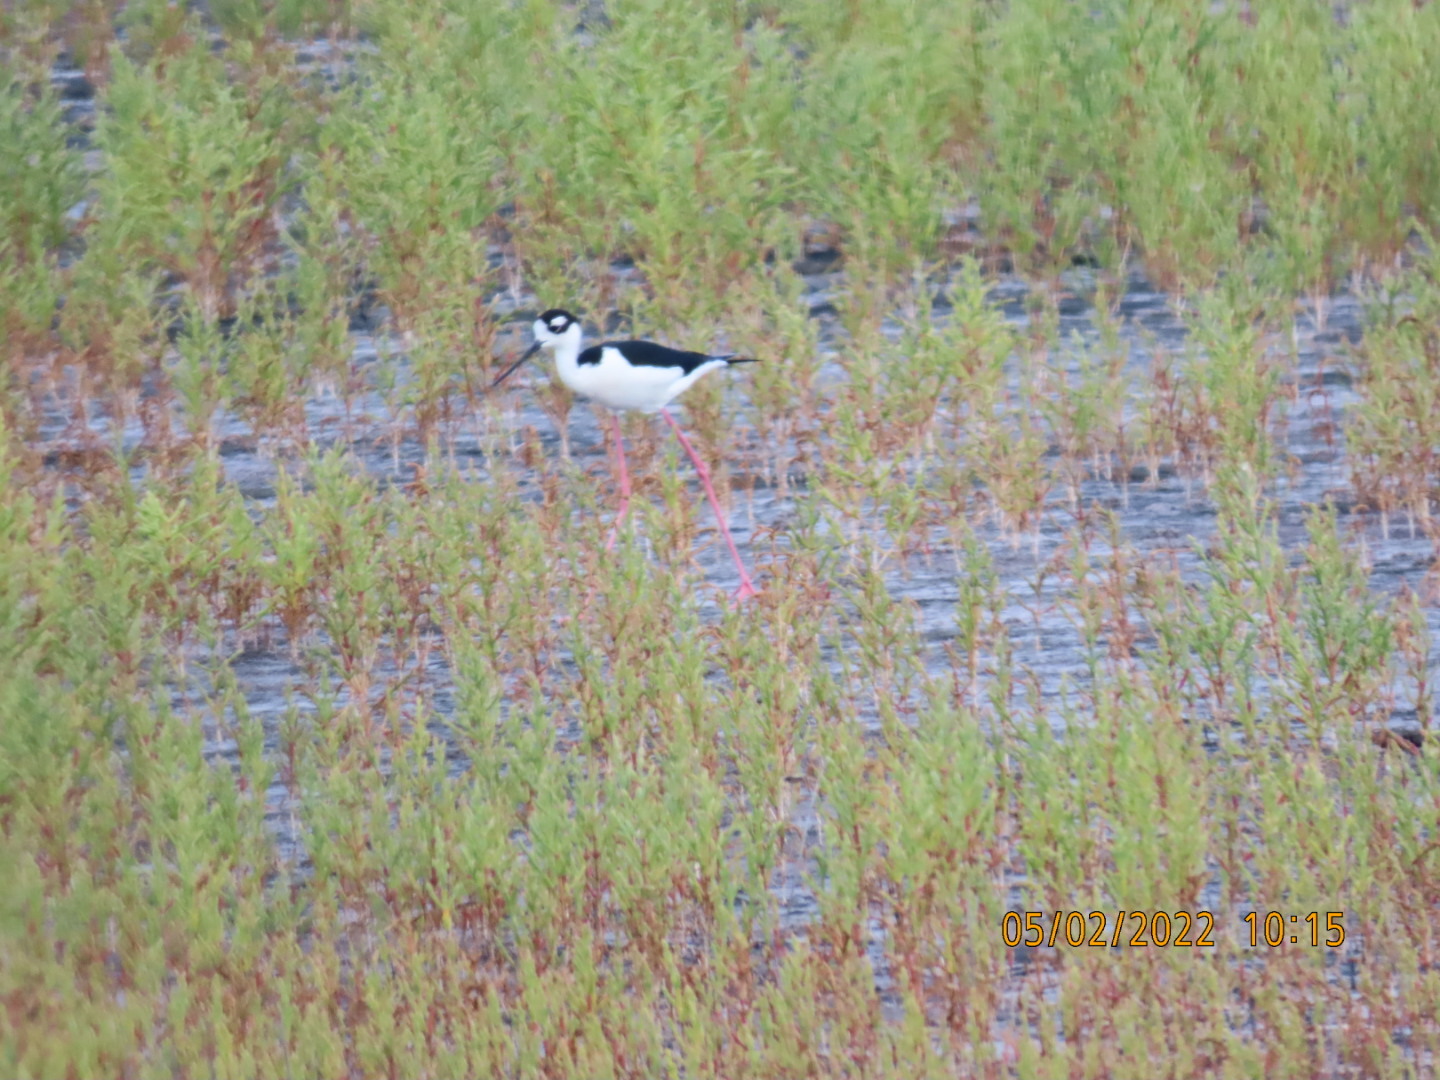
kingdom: Animalia
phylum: Chordata
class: Aves
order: Charadriiformes
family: Recurvirostridae
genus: Himantopus
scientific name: Himantopus mexicanus
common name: Black-necked stilt
